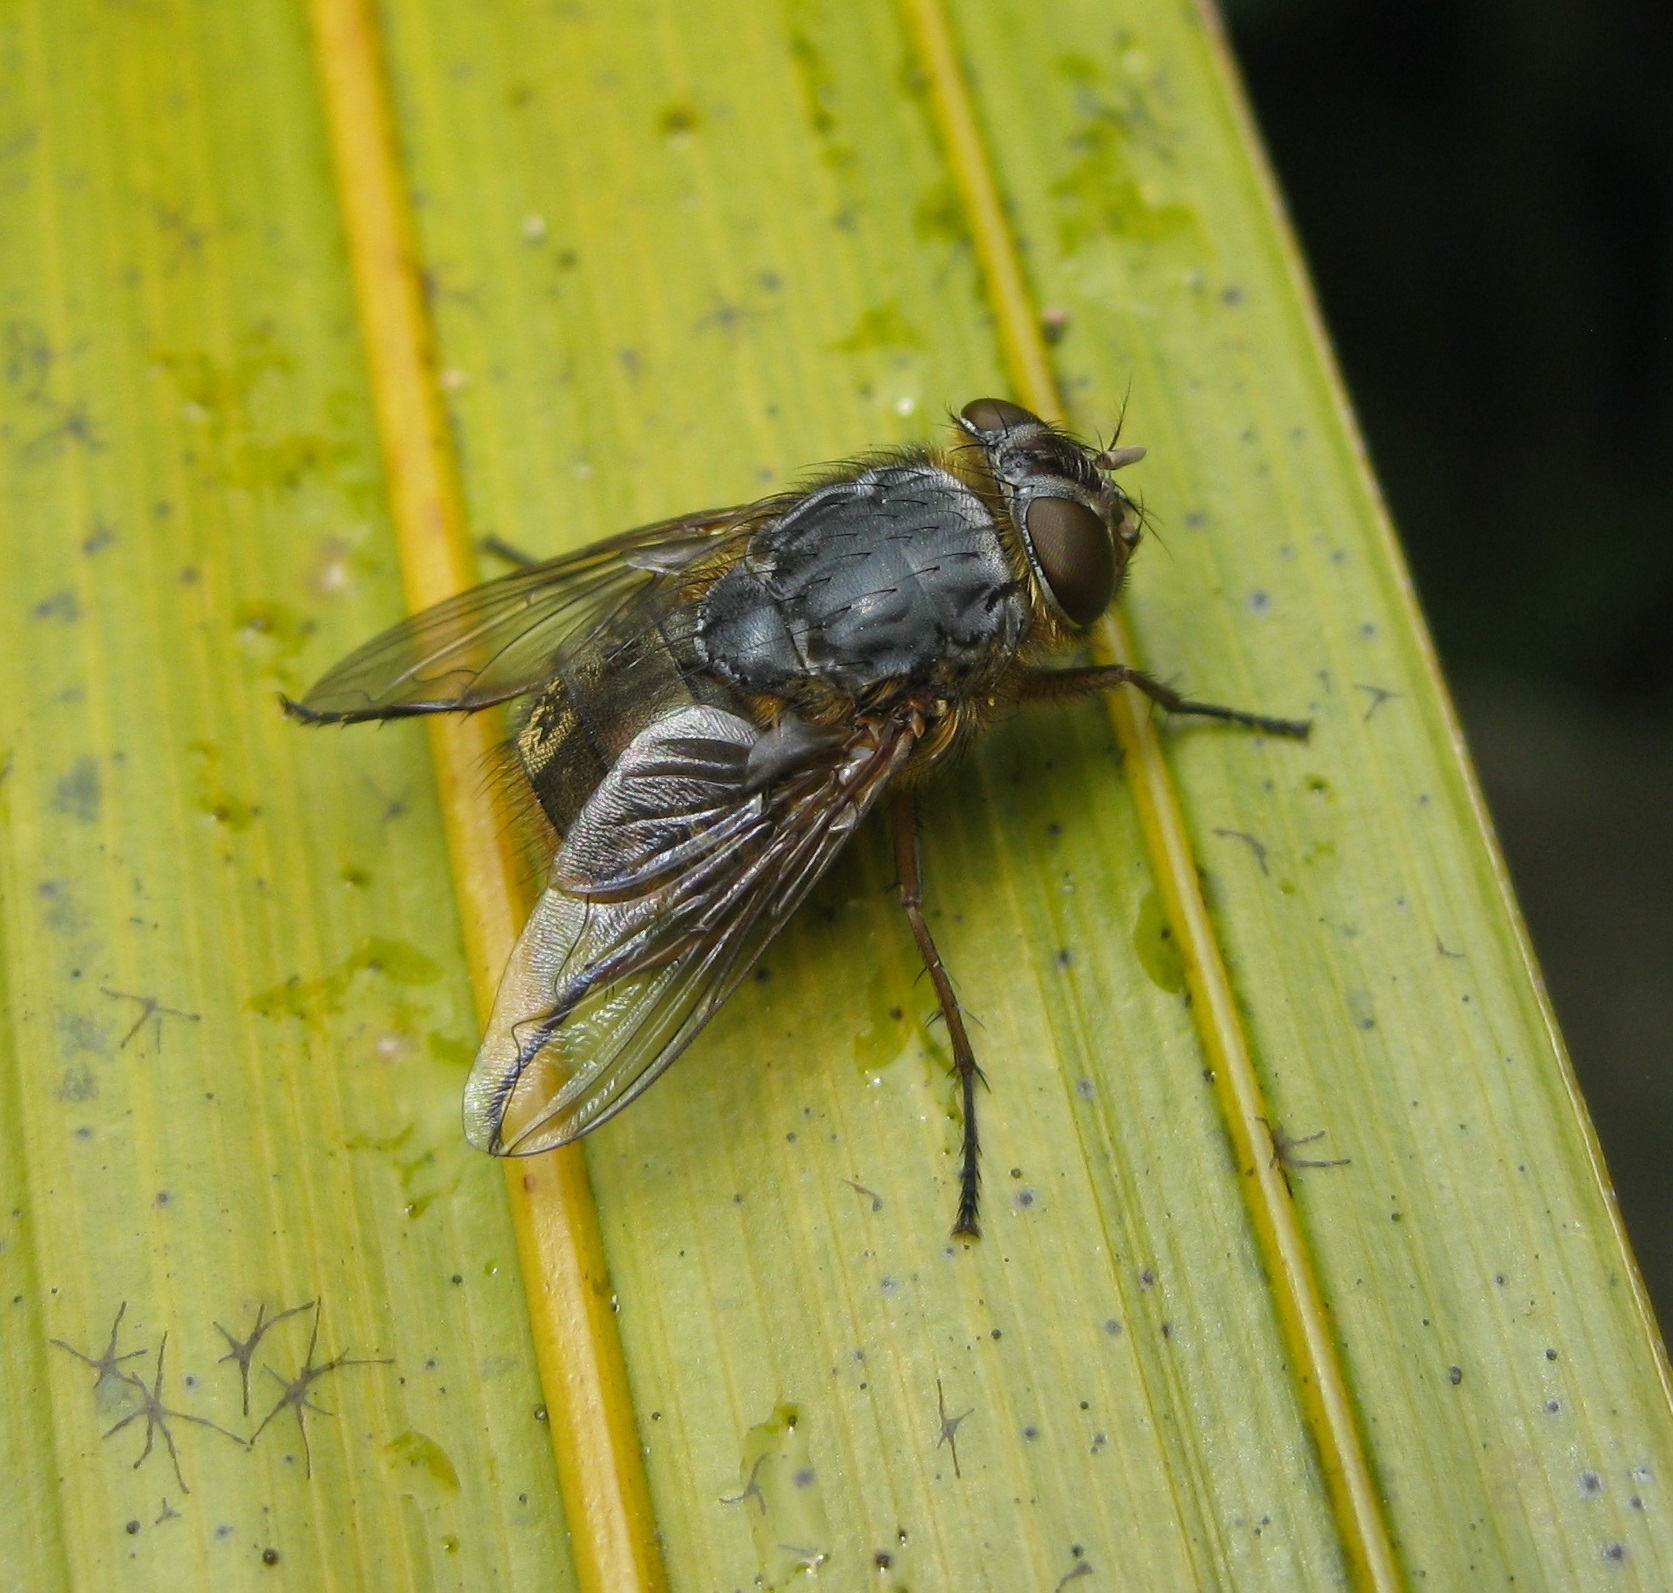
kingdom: Animalia
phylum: Arthropoda
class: Insecta
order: Diptera
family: Calliphoridae
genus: Calliphora
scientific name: Calliphora stygia
